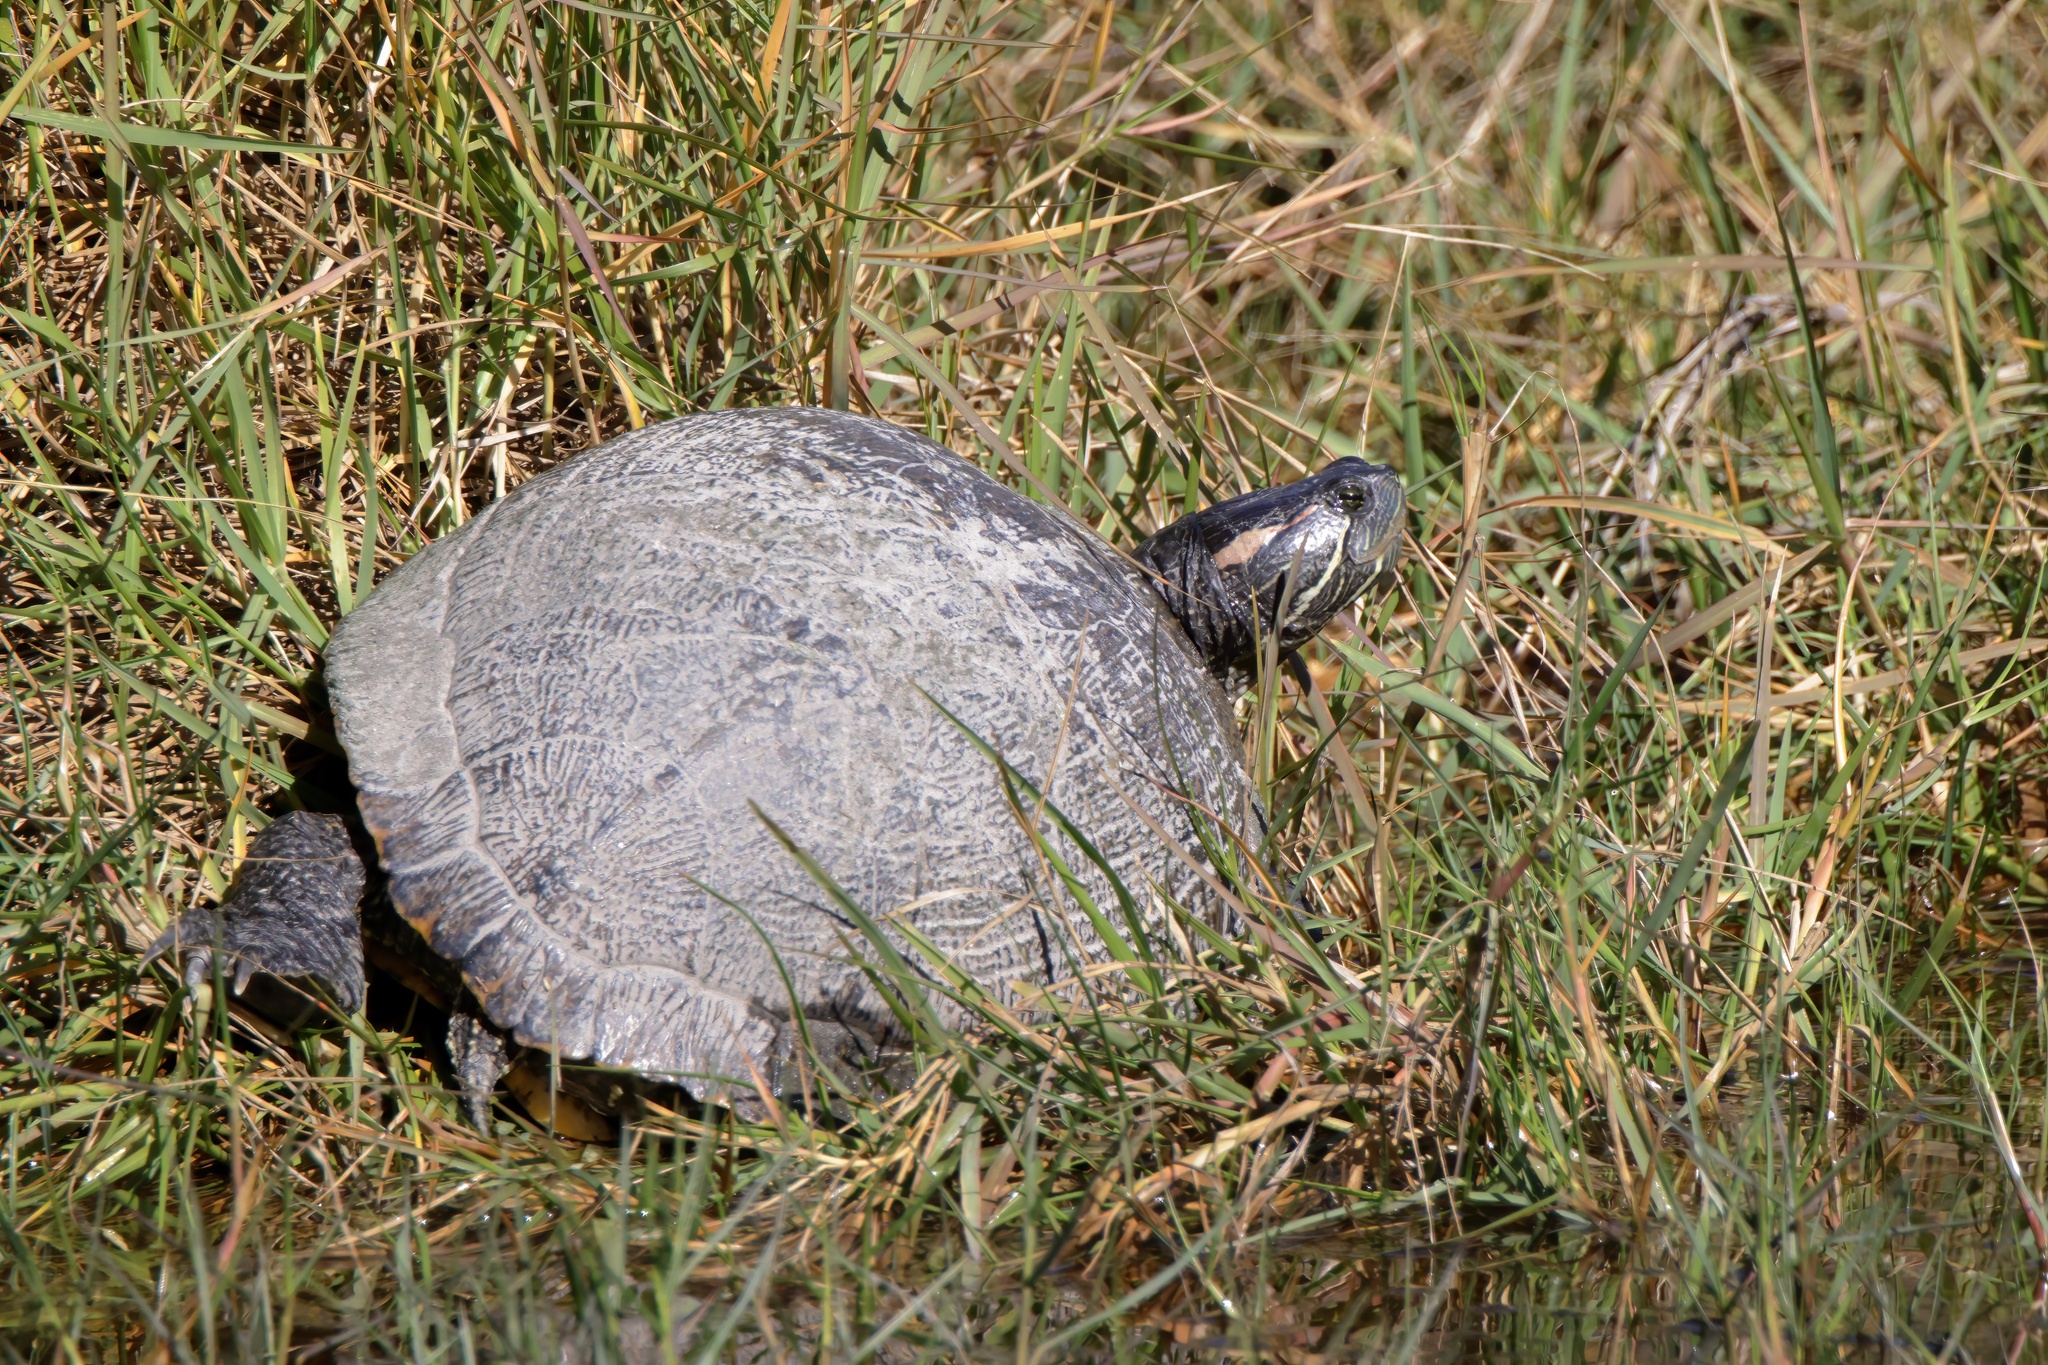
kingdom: Animalia
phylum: Chordata
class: Testudines
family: Emydidae
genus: Trachemys
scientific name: Trachemys scripta
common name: Slider
